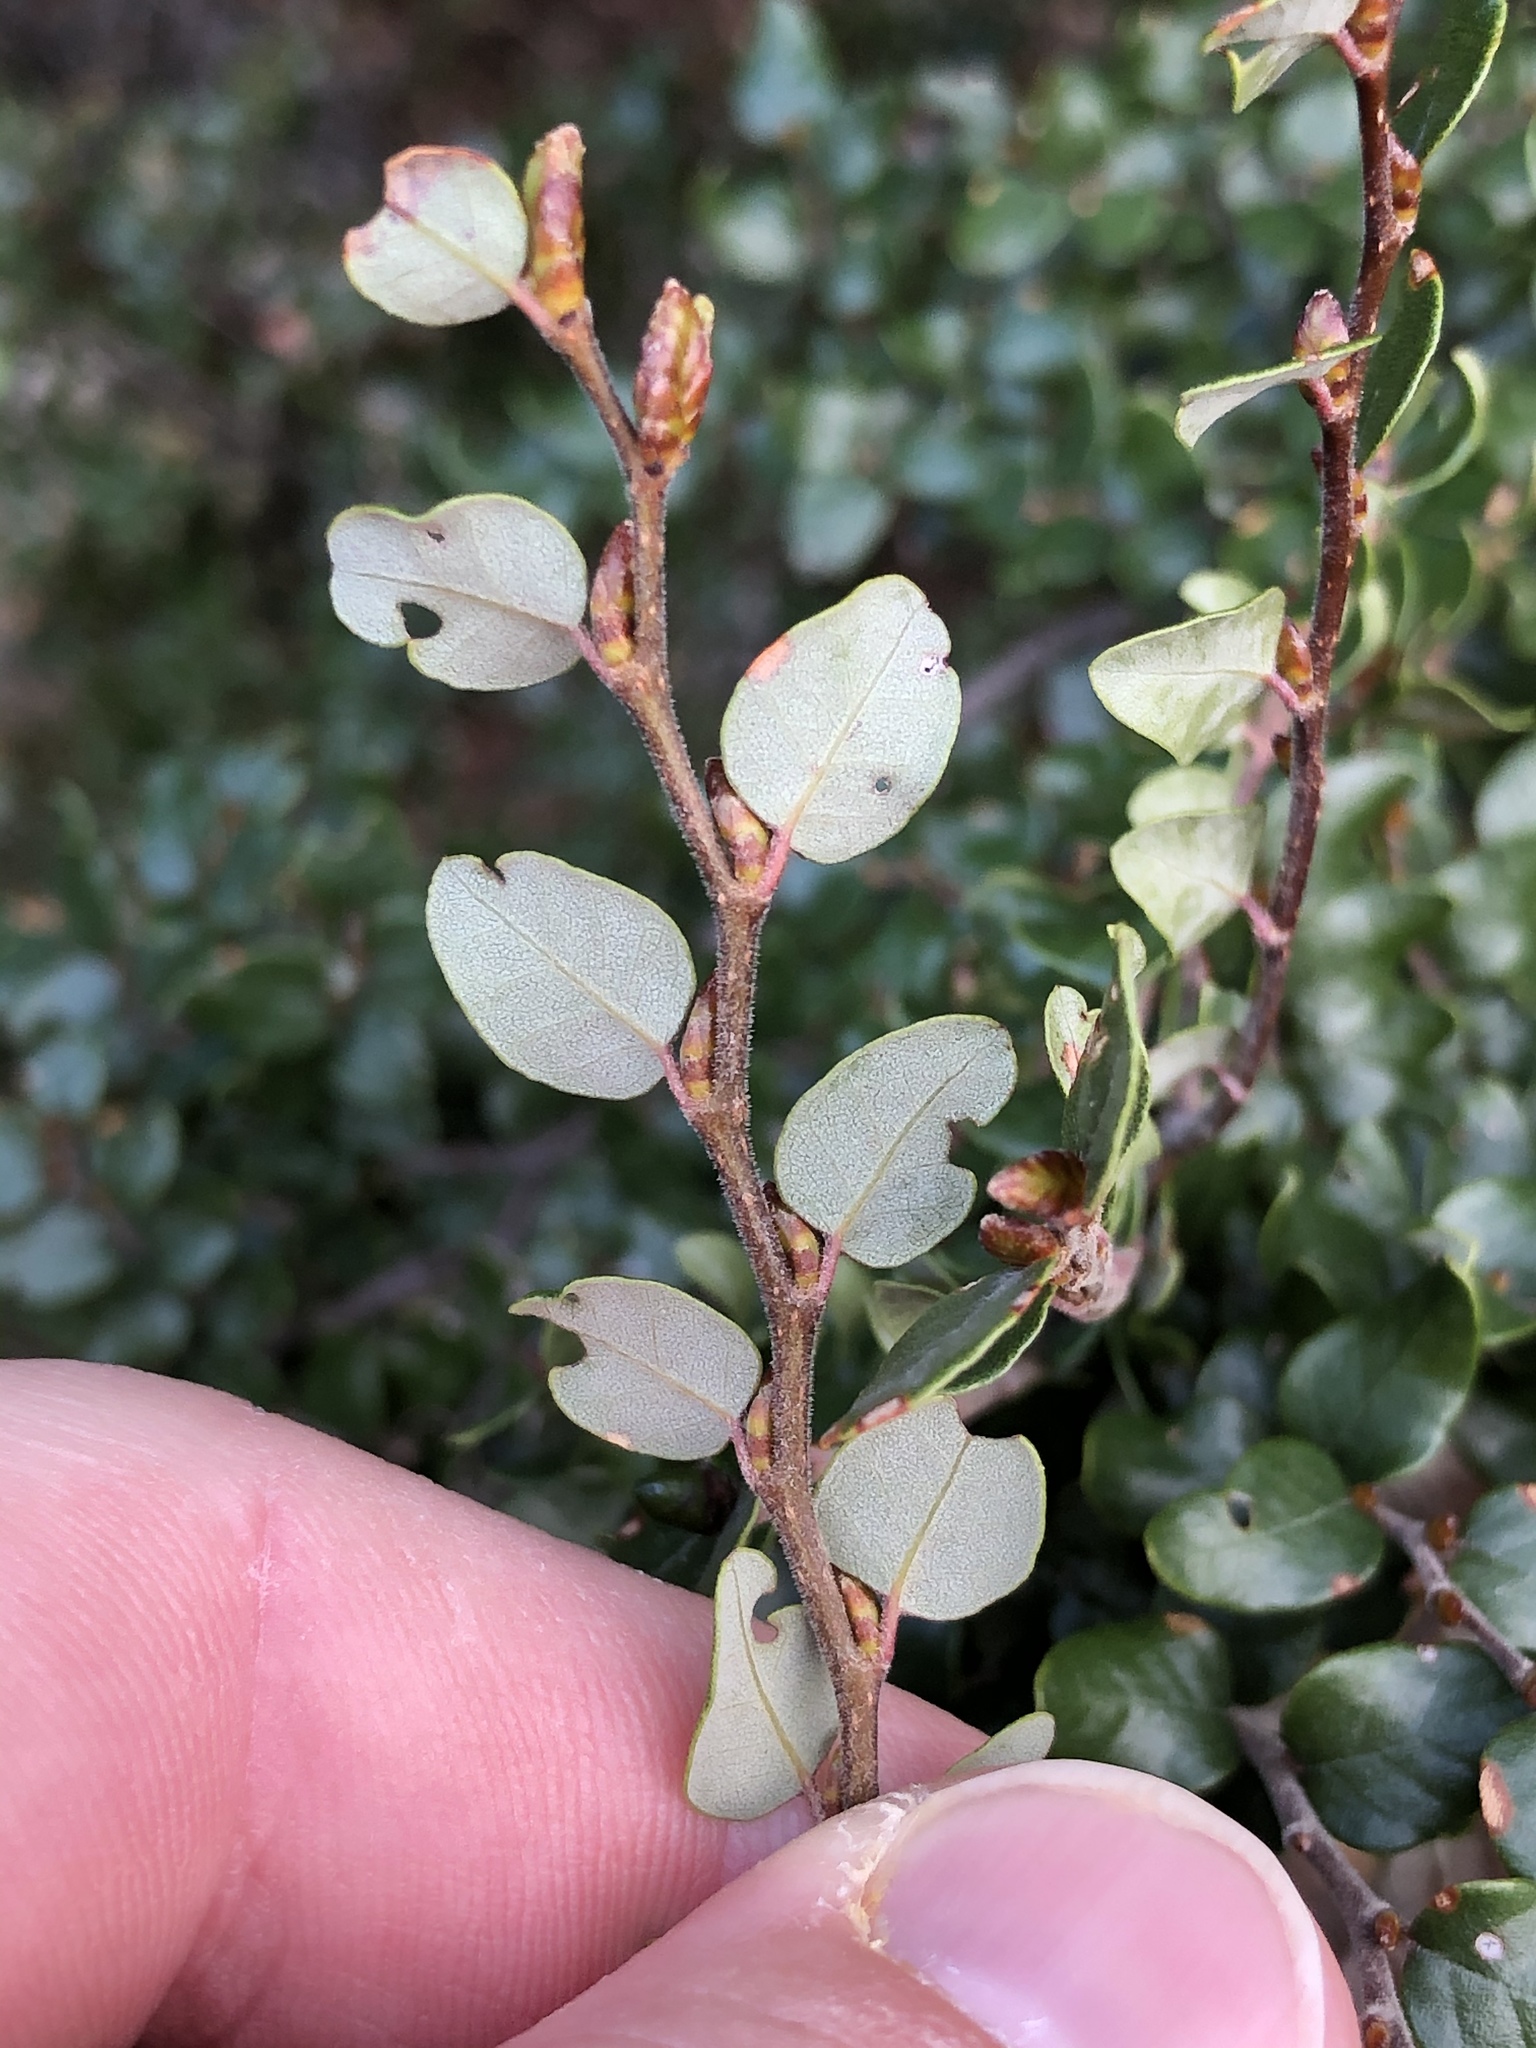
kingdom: Plantae
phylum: Tracheophyta
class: Magnoliopsida
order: Fagales
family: Nothofagaceae
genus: Nothofagus
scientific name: Nothofagus cliffortioides
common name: Mountain beech
